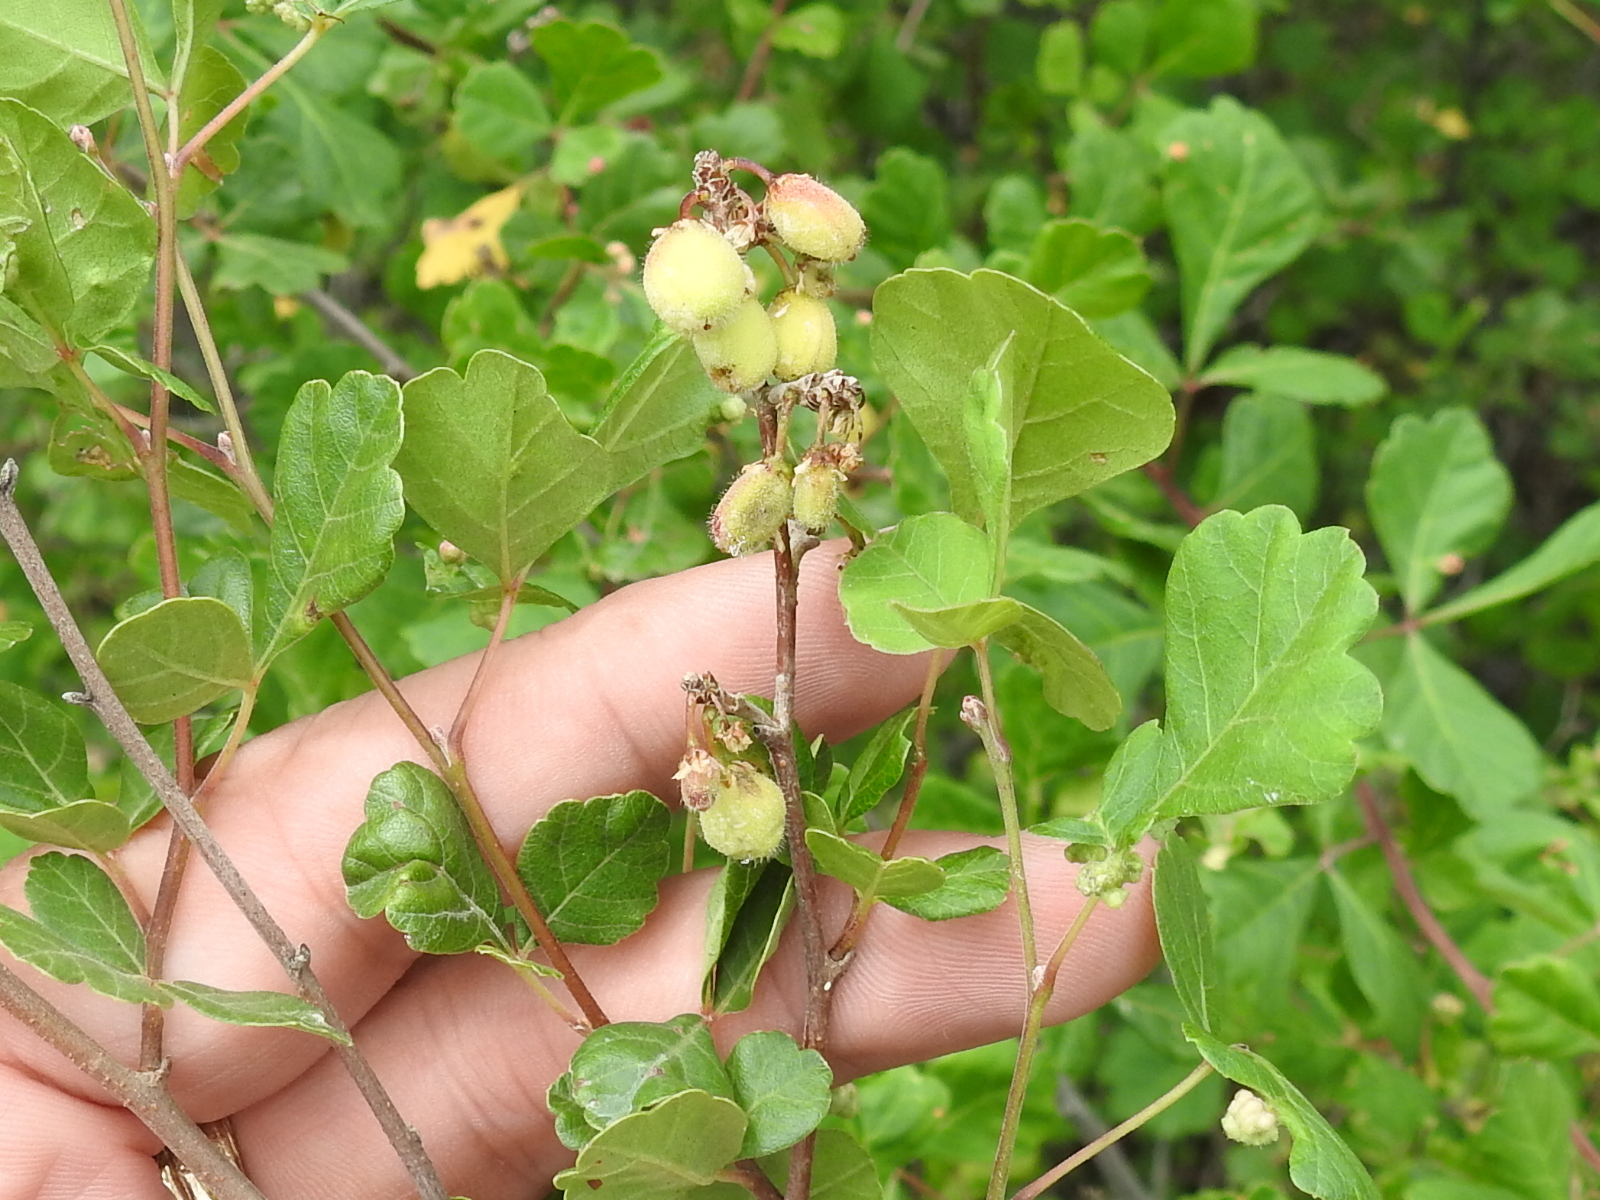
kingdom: Plantae
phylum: Tracheophyta
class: Magnoliopsida
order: Sapindales
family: Anacardiaceae
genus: Rhus
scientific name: Rhus aromatica
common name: Aromatic sumac
